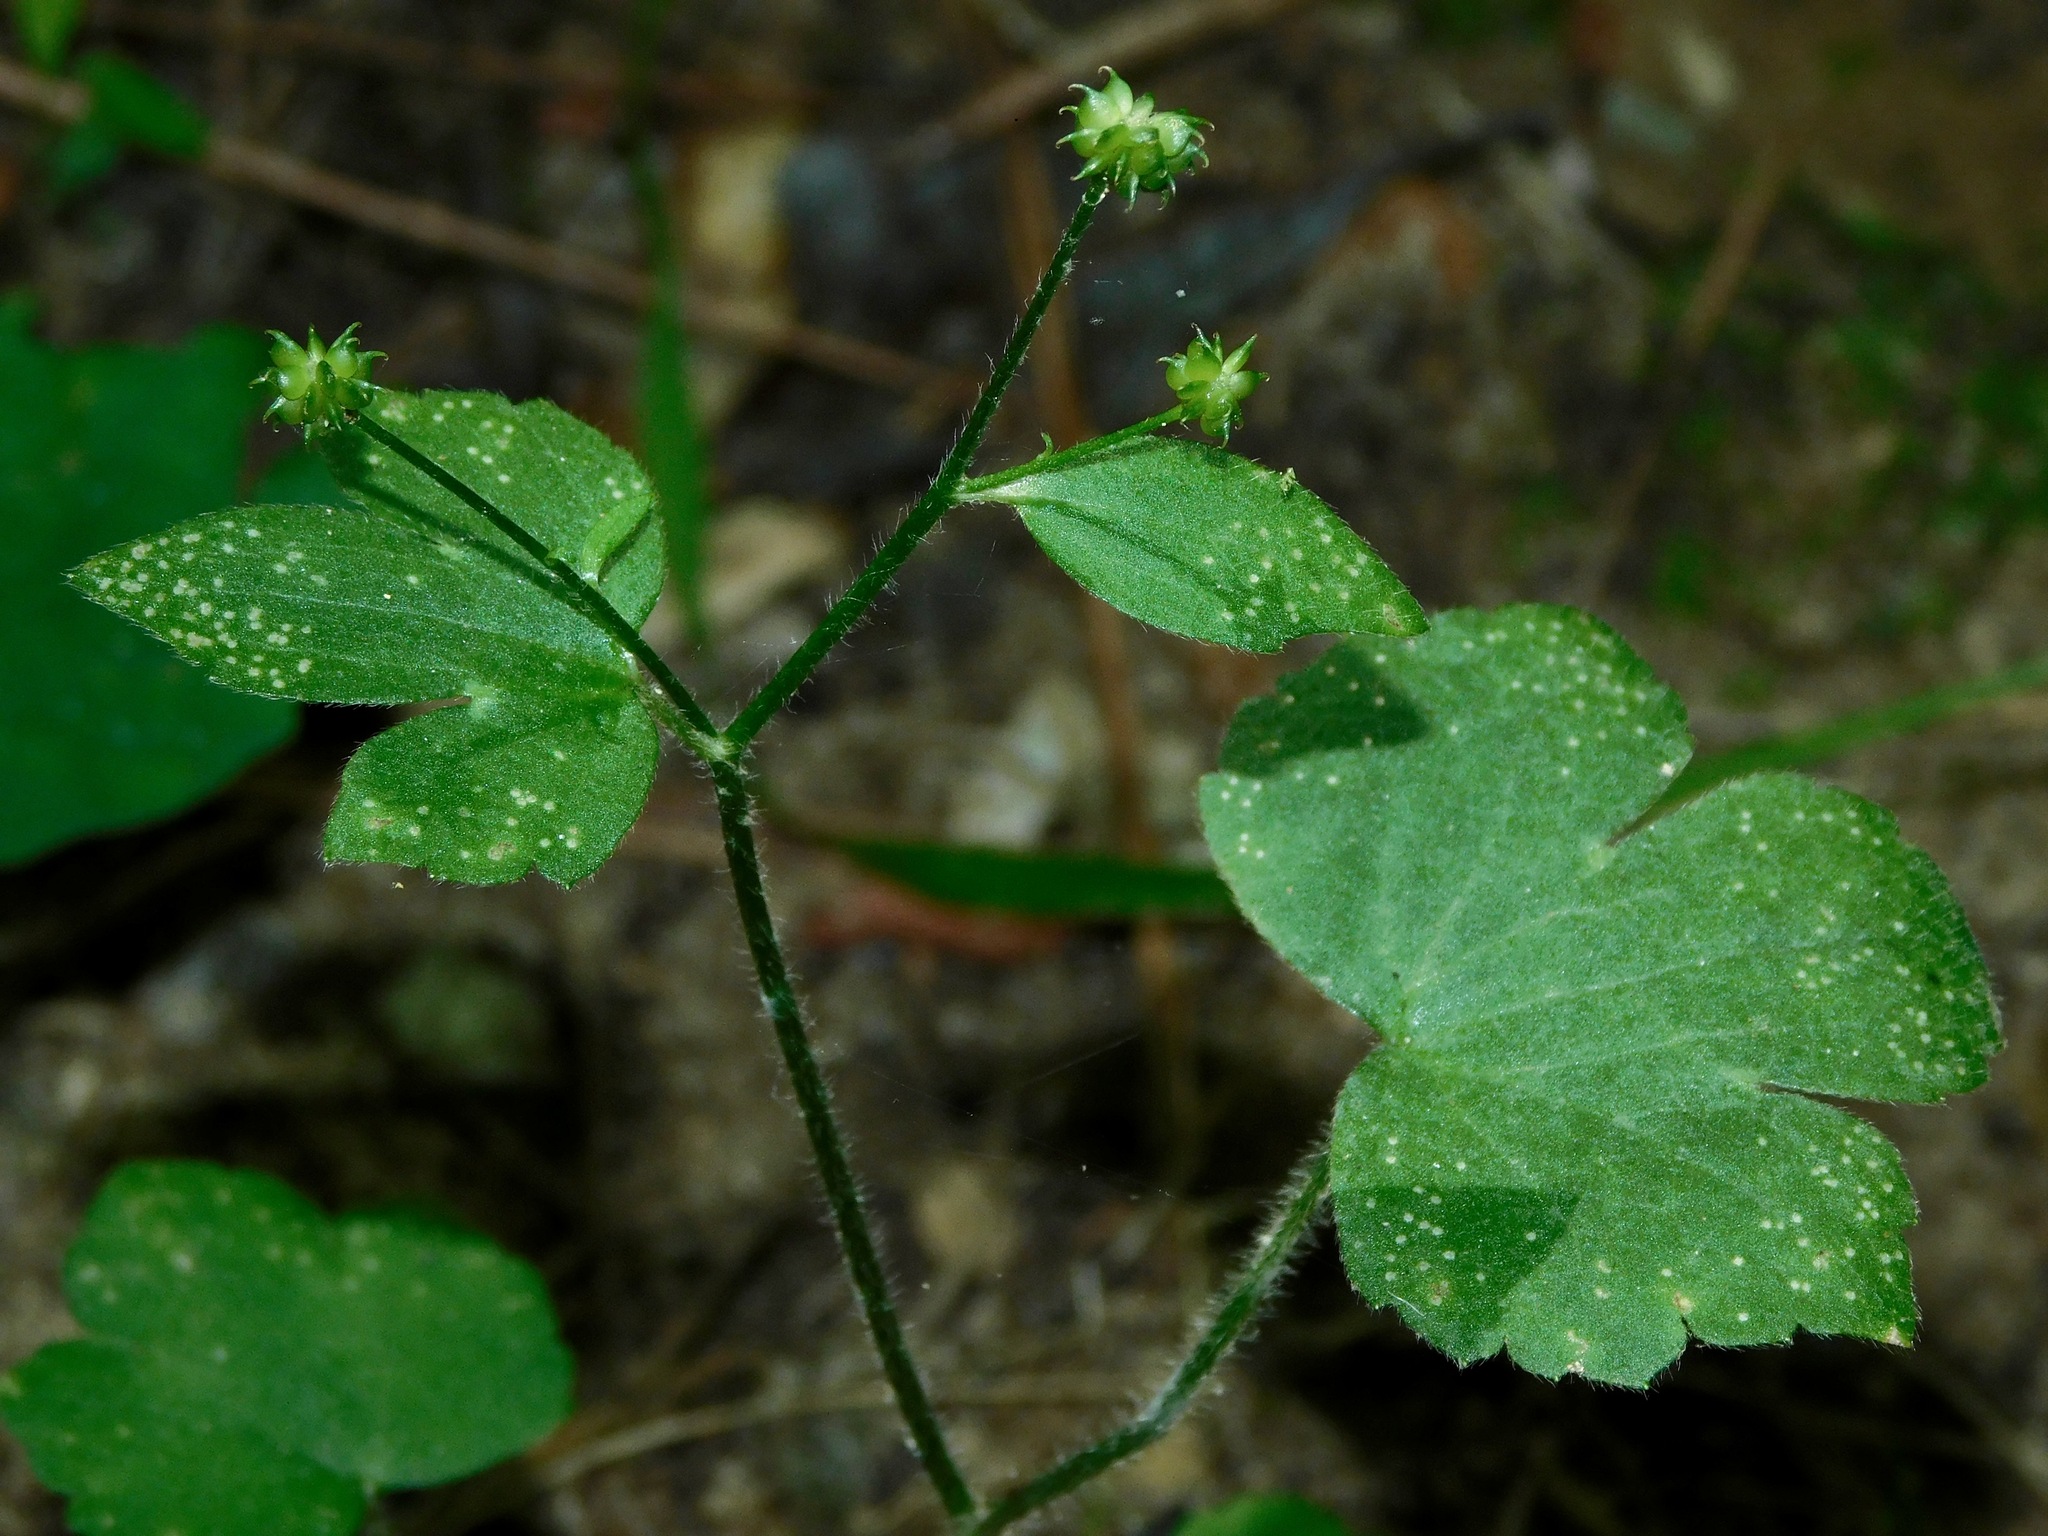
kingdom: Plantae
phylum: Tracheophyta
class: Magnoliopsida
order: Ranunculales
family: Ranunculaceae
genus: Ranunculus
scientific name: Ranunculus recurvatus
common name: Blisterwort
